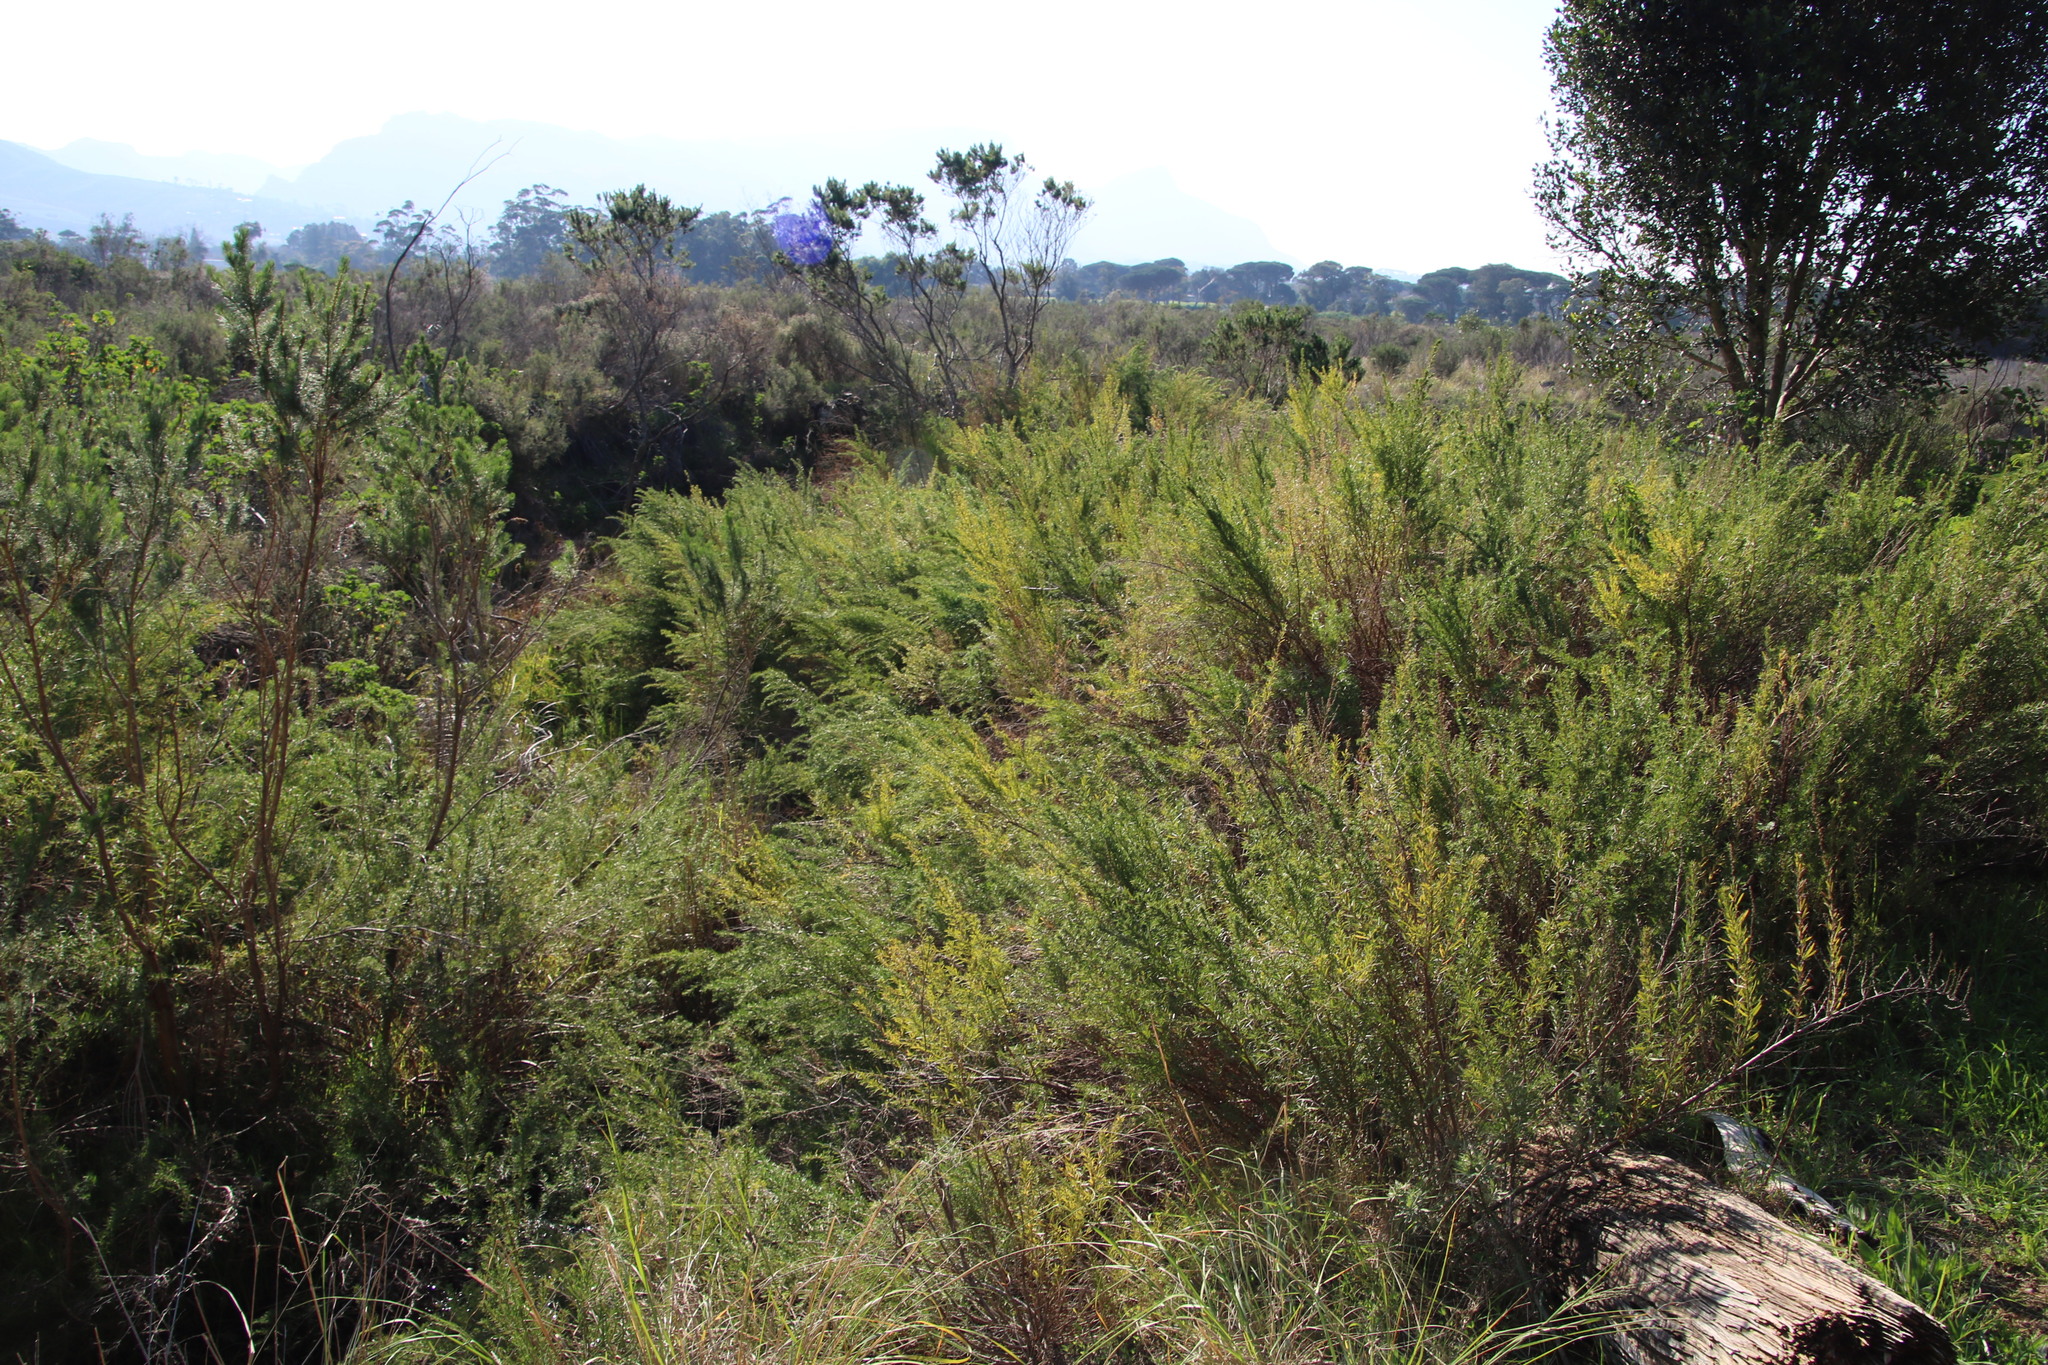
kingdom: Plantae
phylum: Tracheophyta
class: Magnoliopsida
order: Rosales
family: Rosaceae
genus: Cliffortia
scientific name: Cliffortia strobilifera
